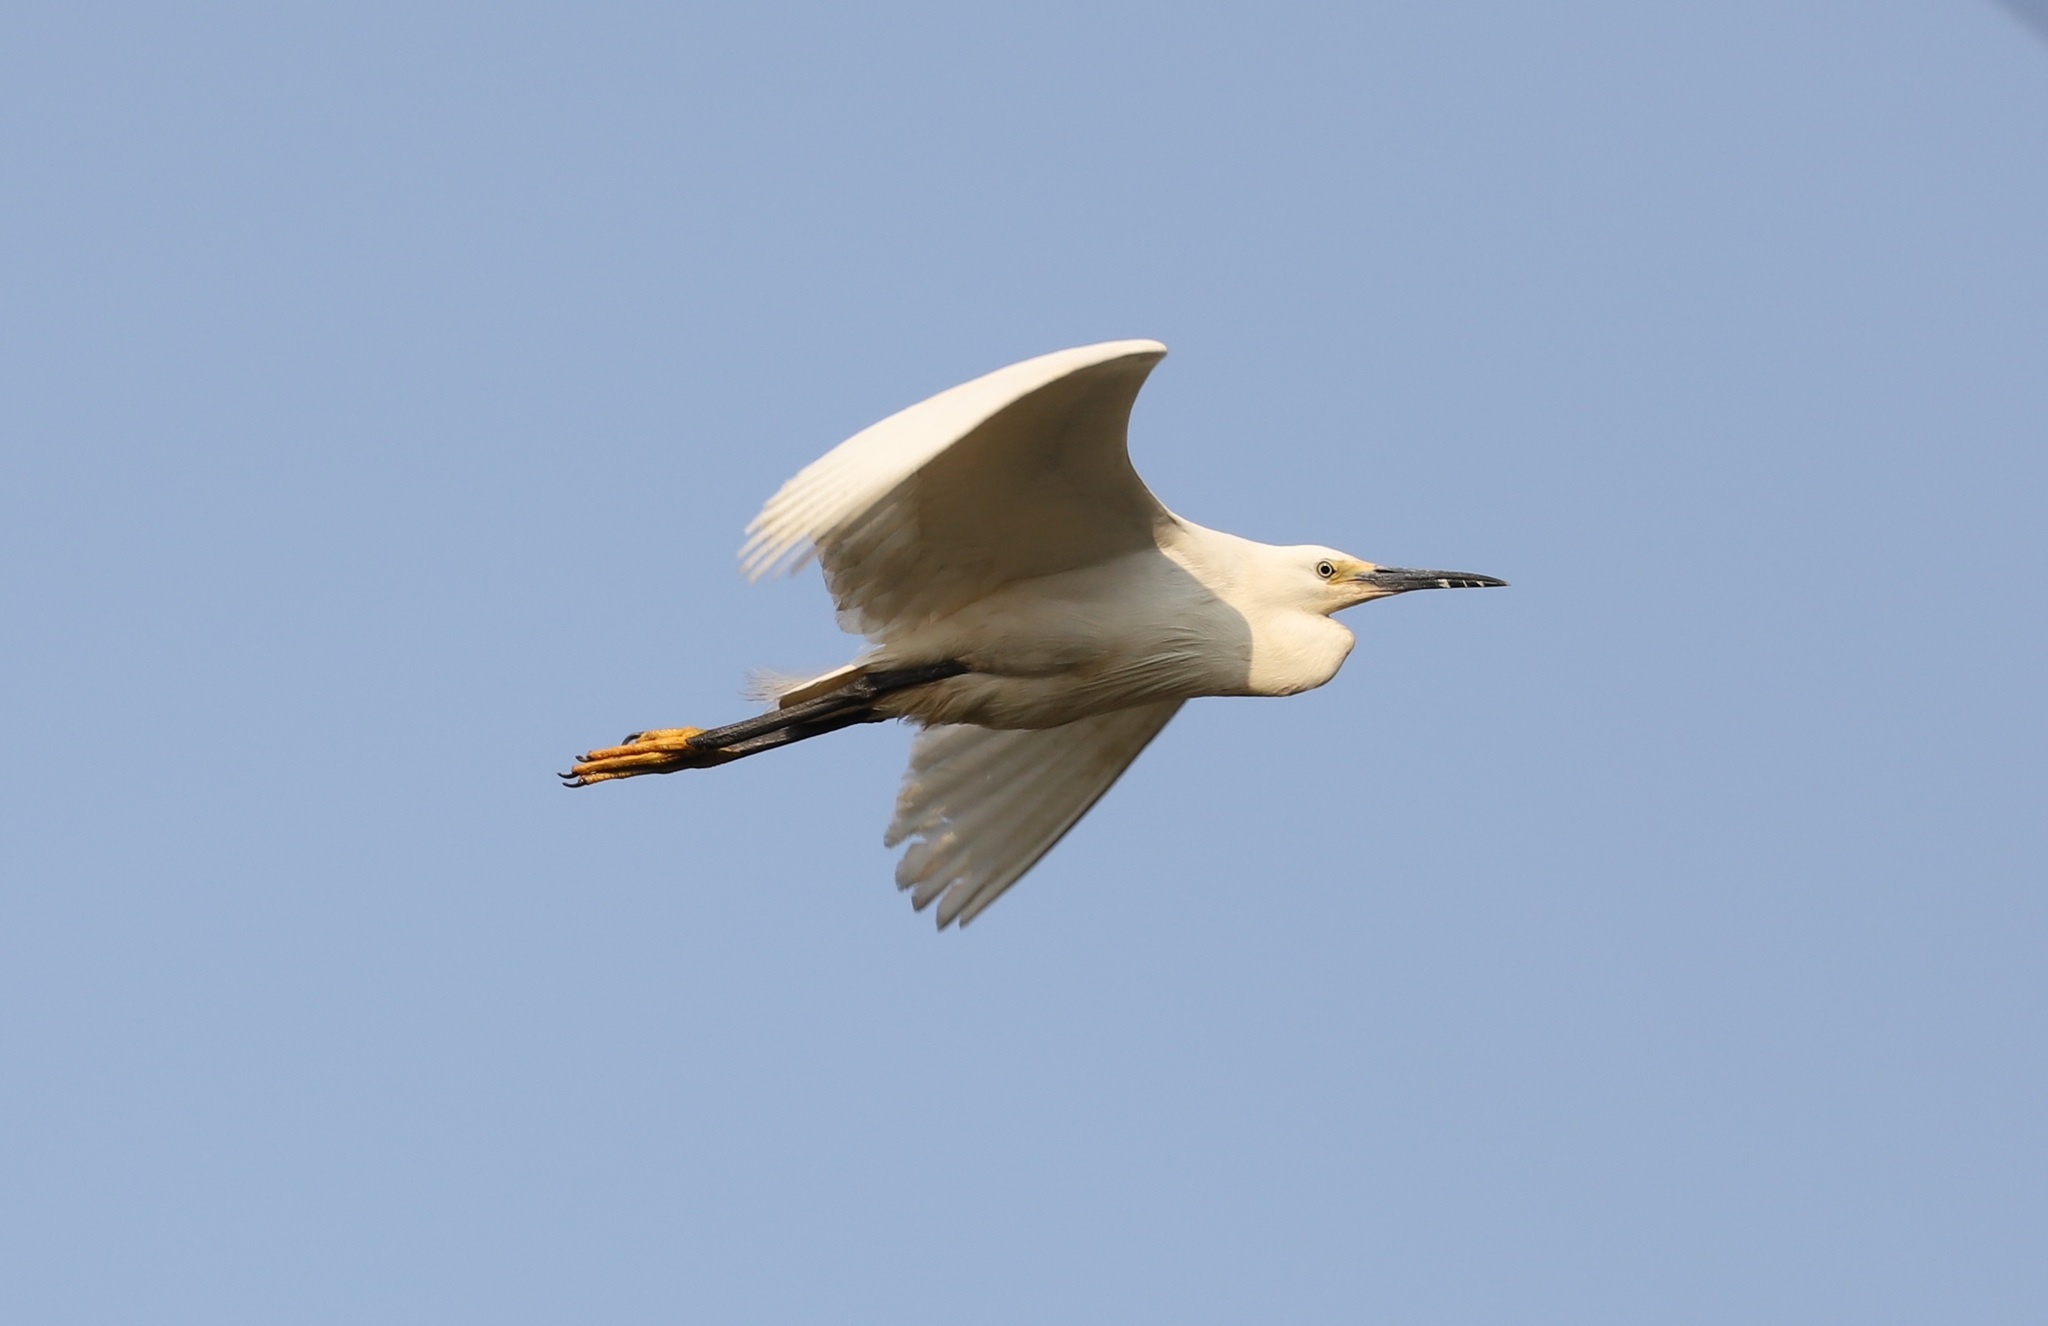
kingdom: Animalia
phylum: Chordata
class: Aves
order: Pelecaniformes
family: Ardeidae
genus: Egretta
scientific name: Egretta garzetta
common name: Little egret
